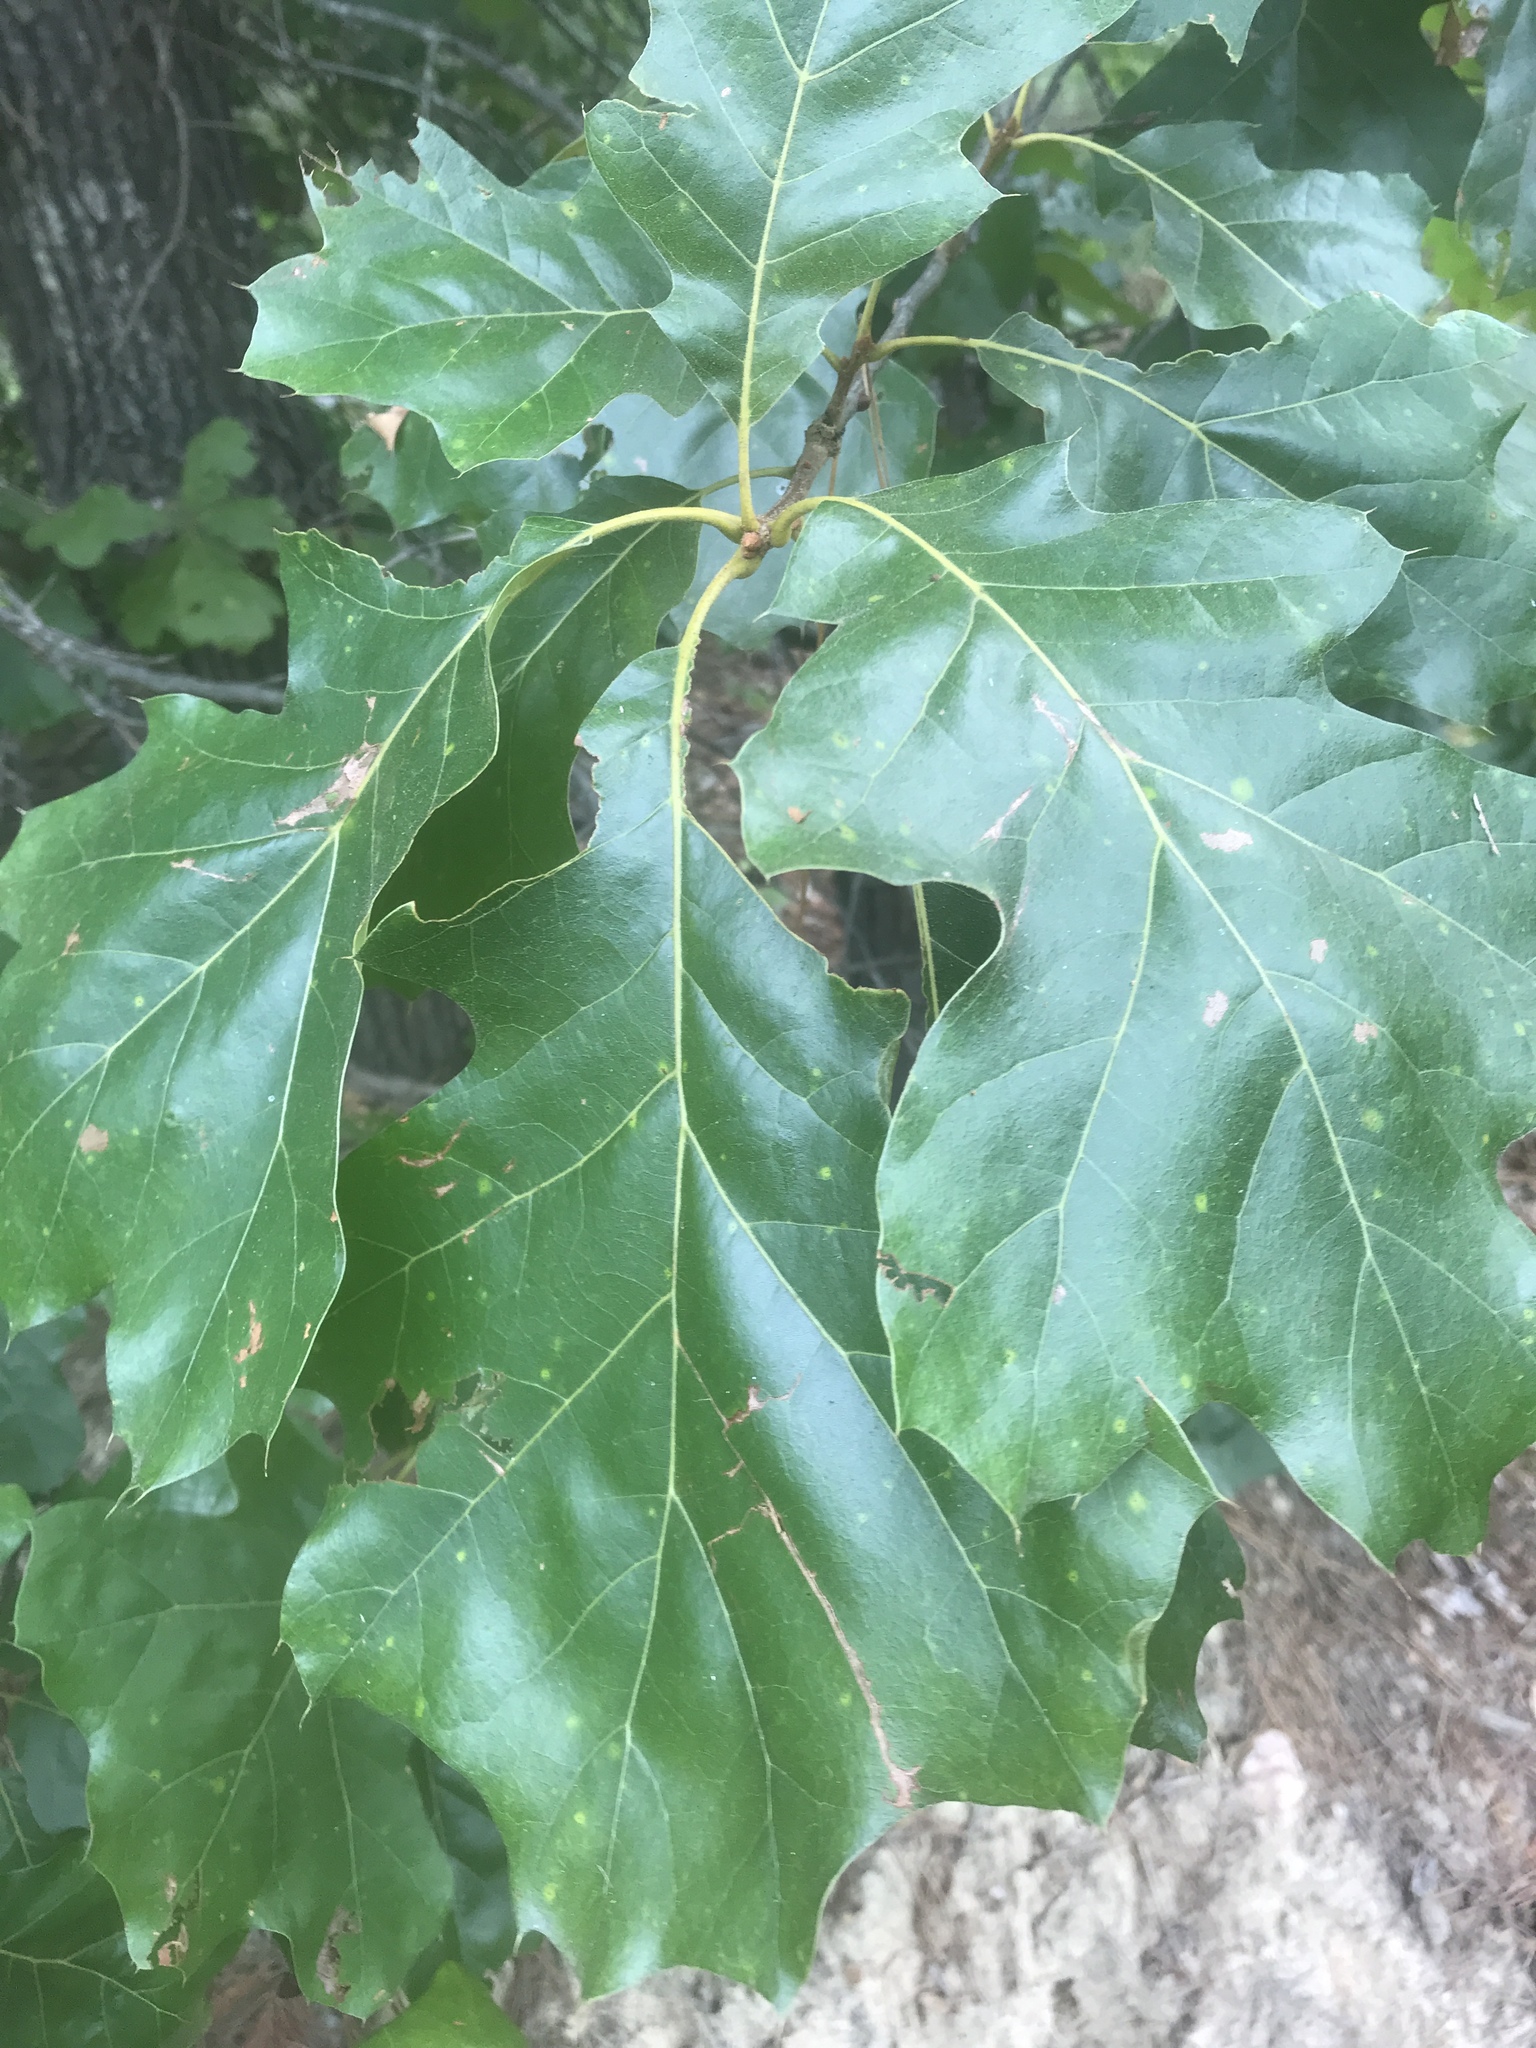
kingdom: Plantae
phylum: Tracheophyta
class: Magnoliopsida
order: Fagales
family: Fagaceae
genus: Quercus
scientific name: Quercus velutina
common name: Black oak
